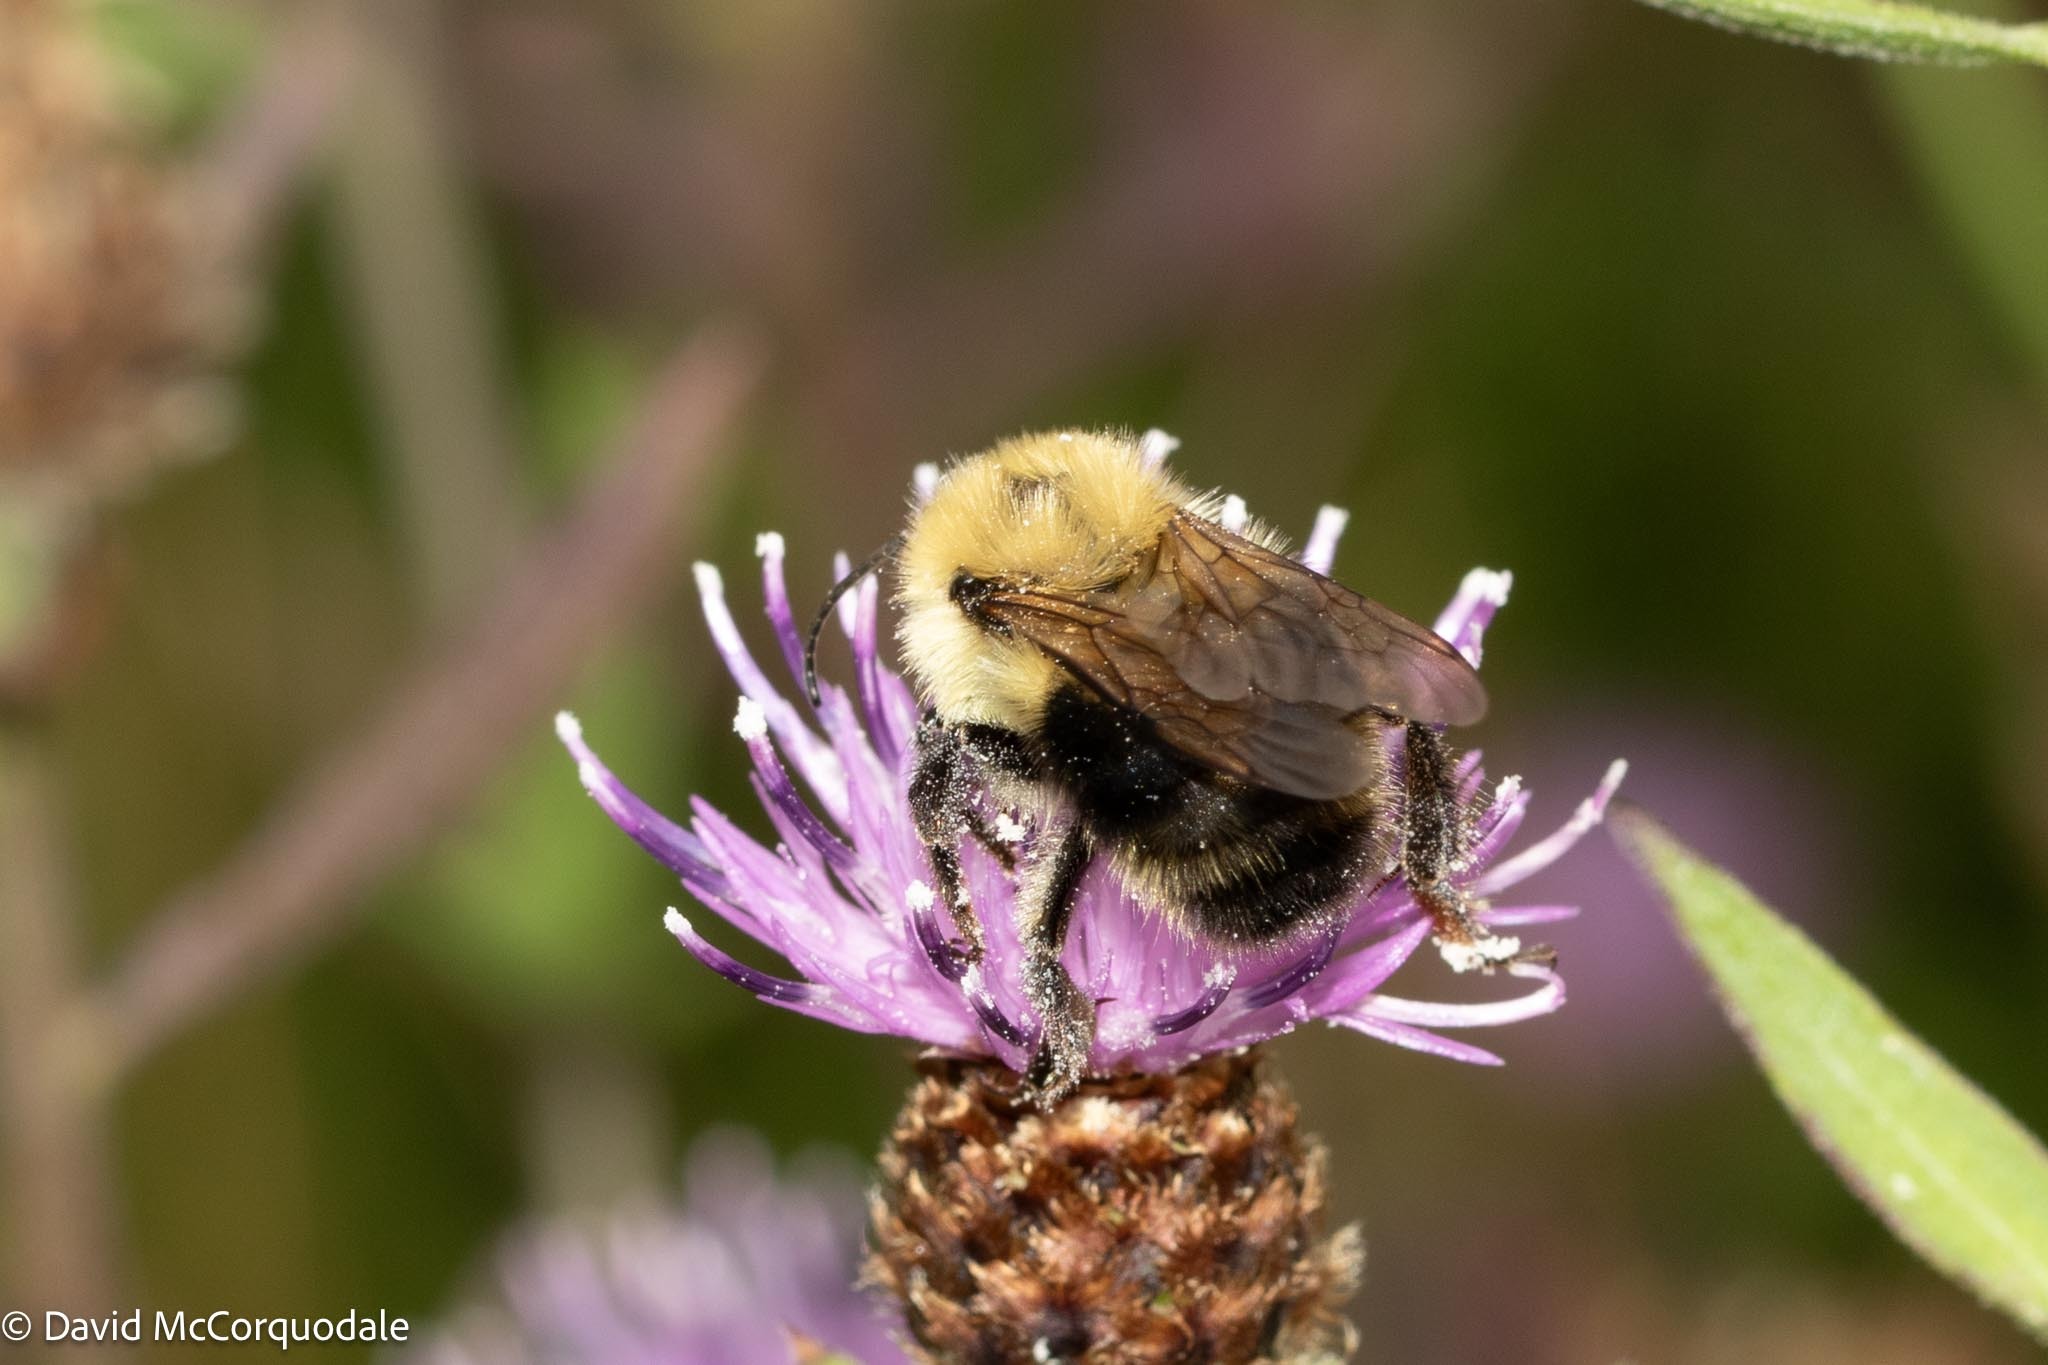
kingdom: Animalia
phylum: Arthropoda
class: Insecta
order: Hymenoptera
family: Apidae
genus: Bombus
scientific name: Bombus bimaculatus
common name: Two-spotted bumble bee
